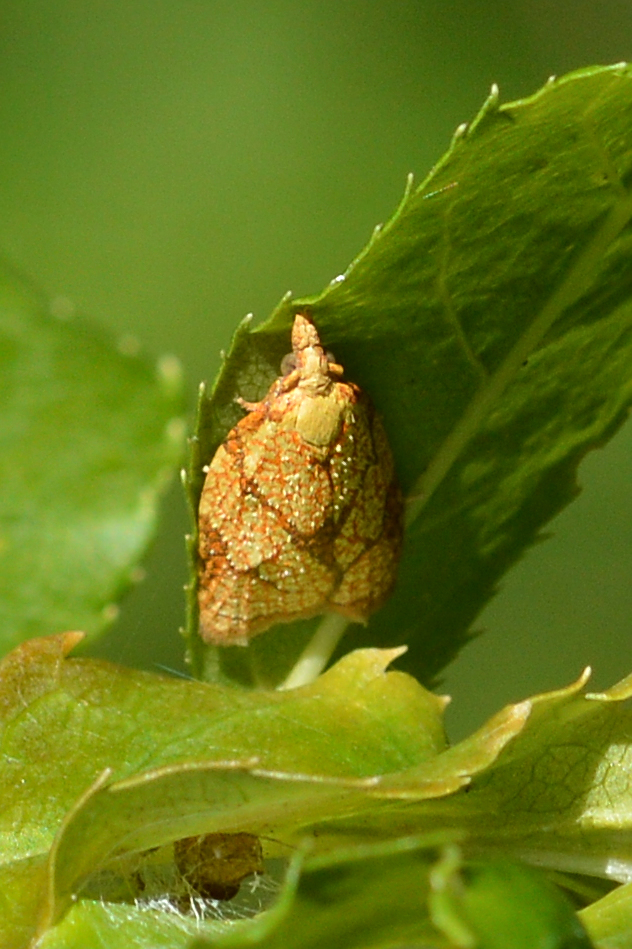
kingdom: Animalia
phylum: Arthropoda
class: Insecta
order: Lepidoptera
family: Tortricidae
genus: Cenopis
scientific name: Cenopis reticulatana
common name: Reticulated fruitworm moth
